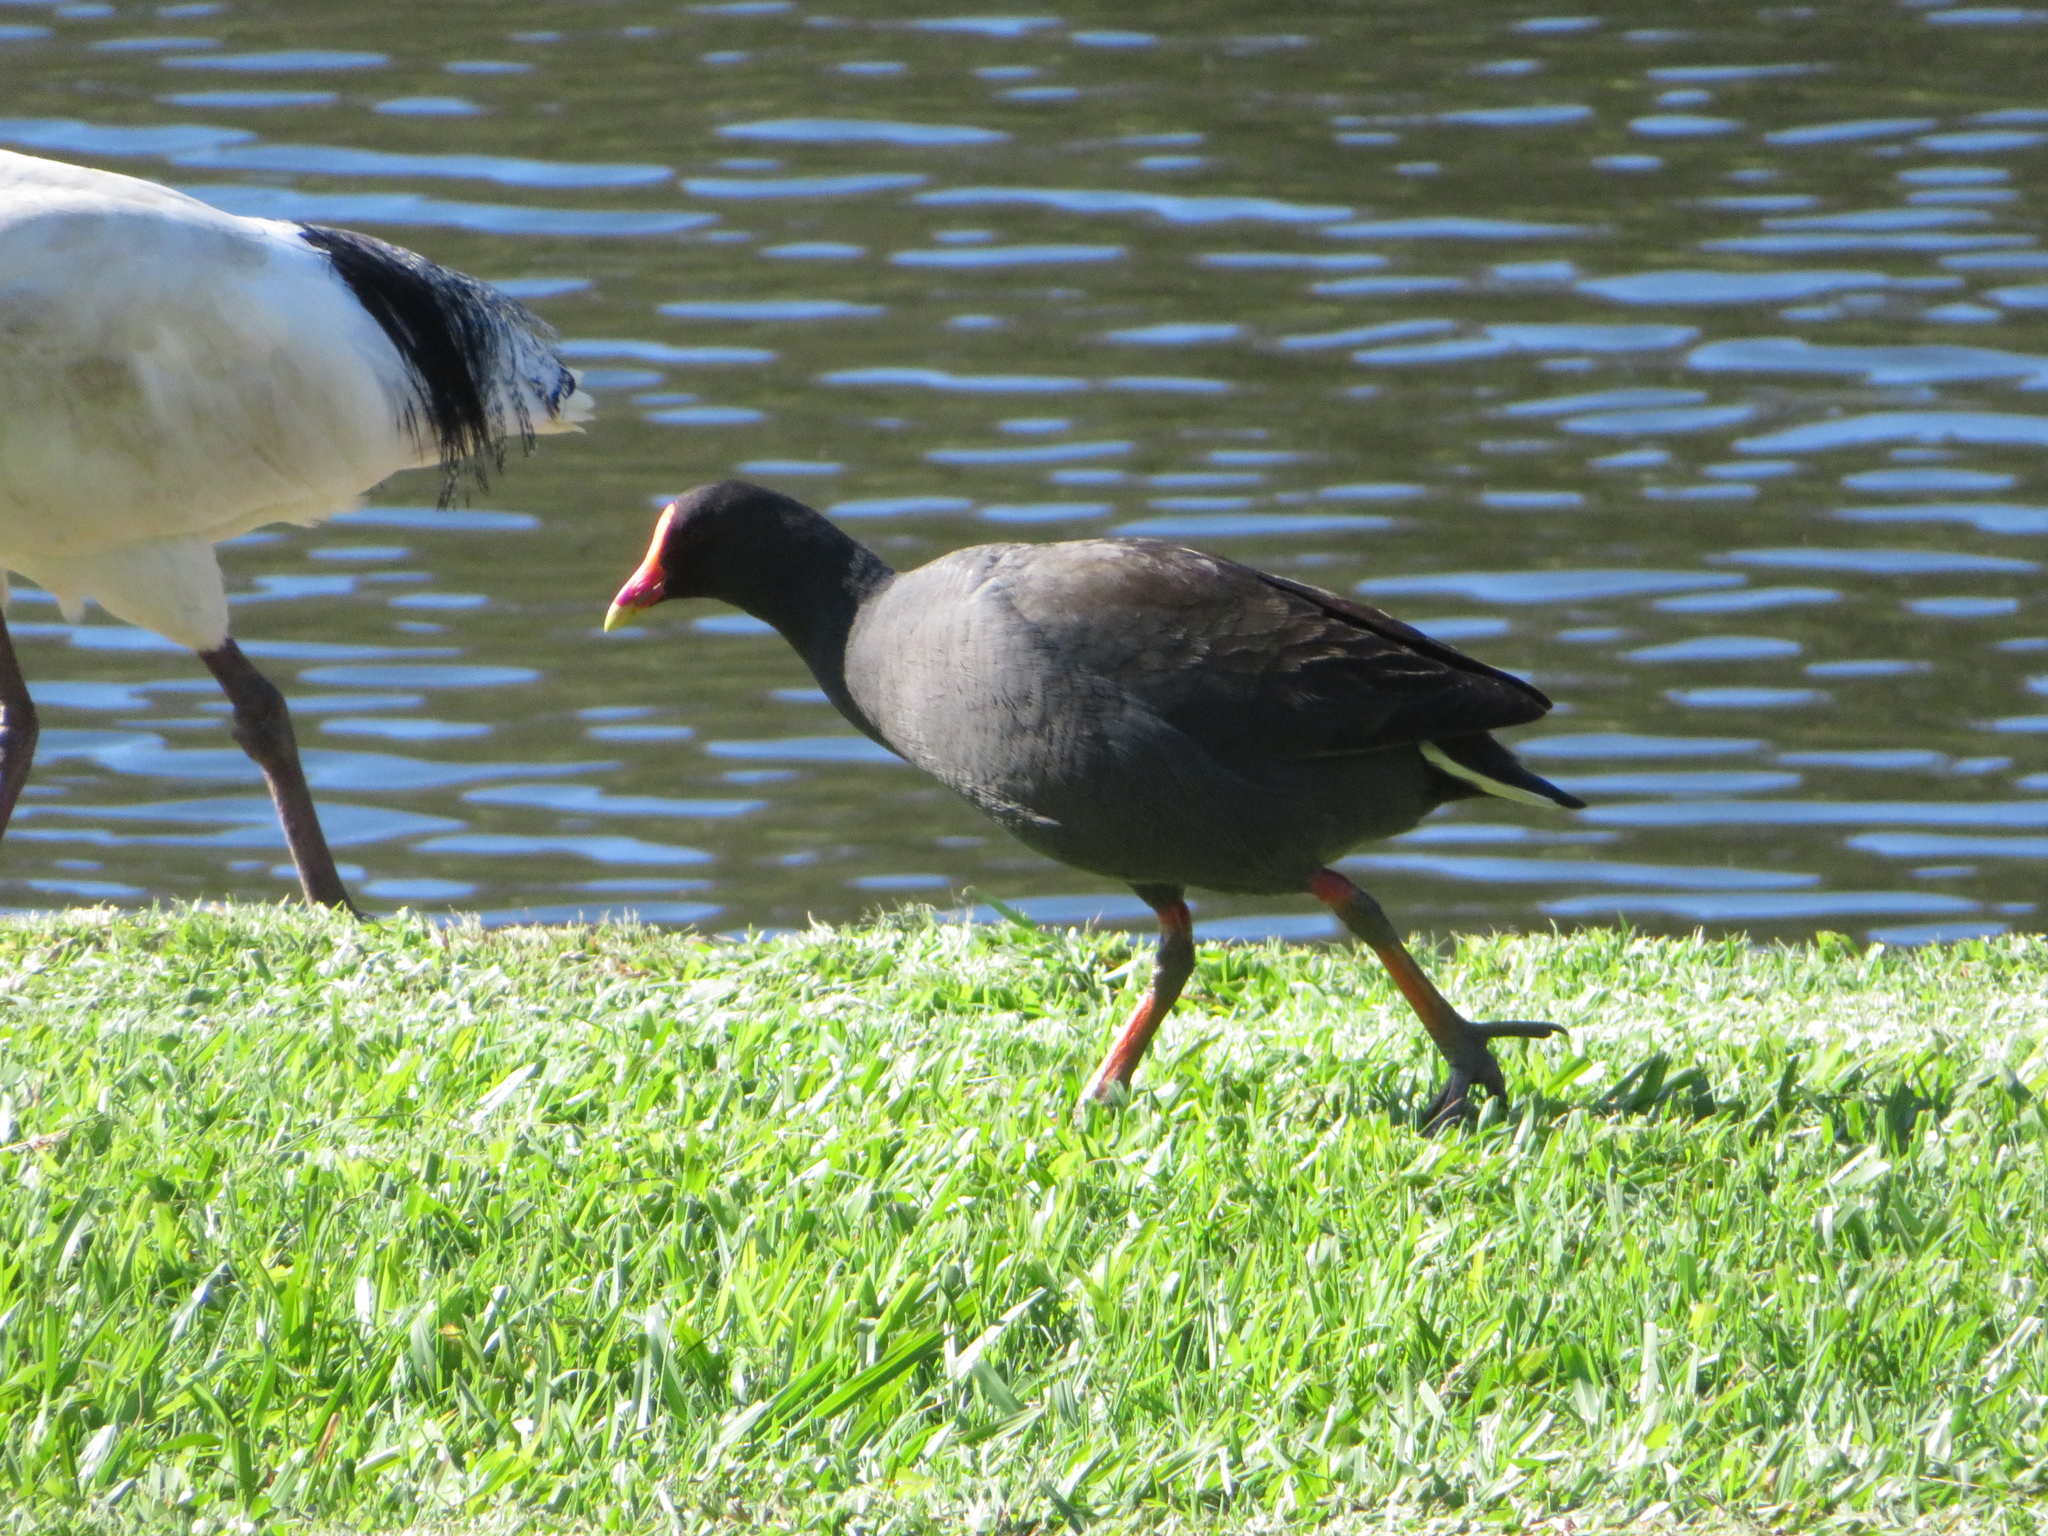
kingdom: Animalia
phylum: Chordata
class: Aves
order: Gruiformes
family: Rallidae
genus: Gallinula
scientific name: Gallinula tenebrosa
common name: Dusky moorhen
